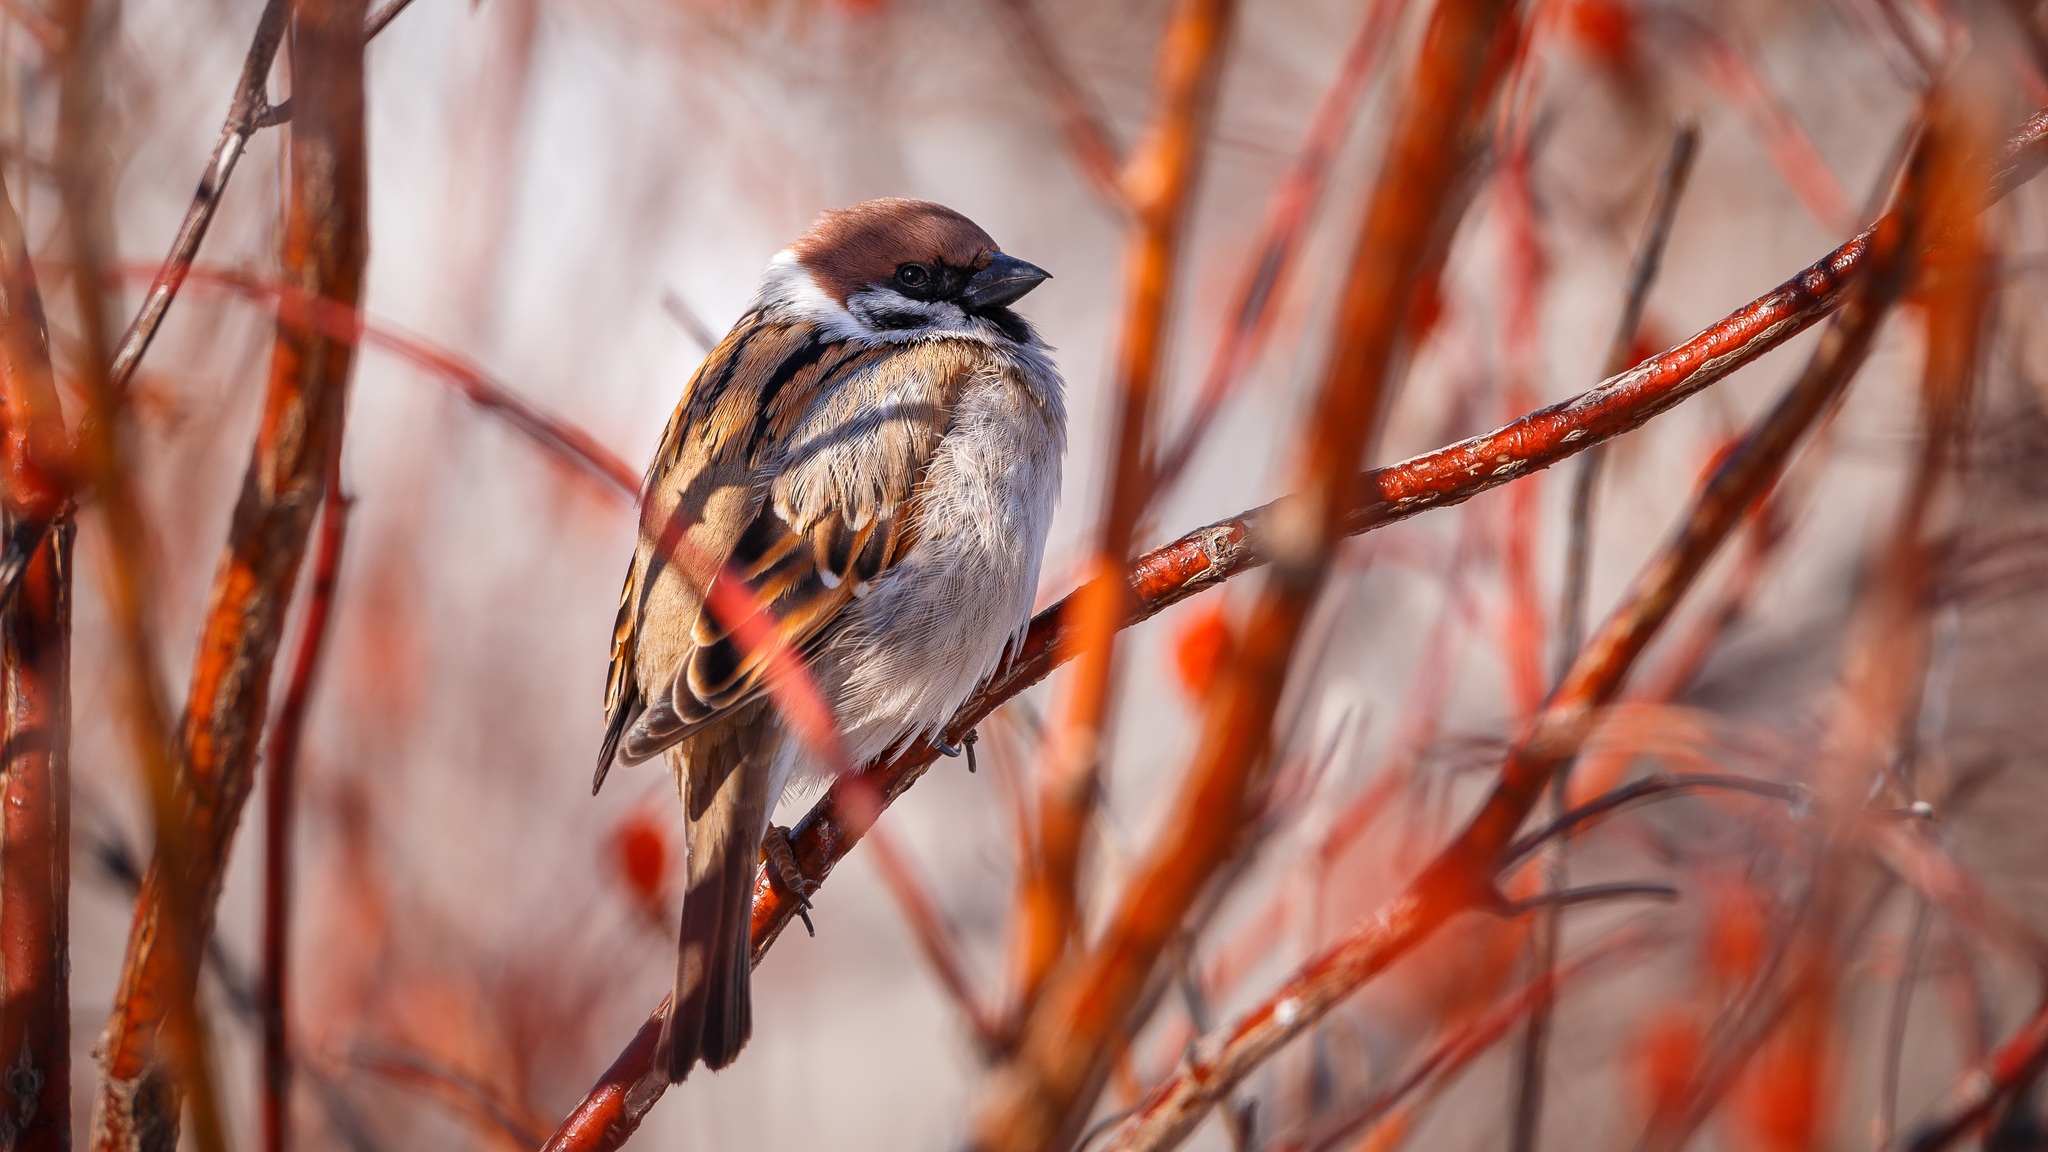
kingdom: Animalia
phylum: Chordata
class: Aves
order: Passeriformes
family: Passeridae
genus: Passer
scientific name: Passer montanus
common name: Eurasian tree sparrow
